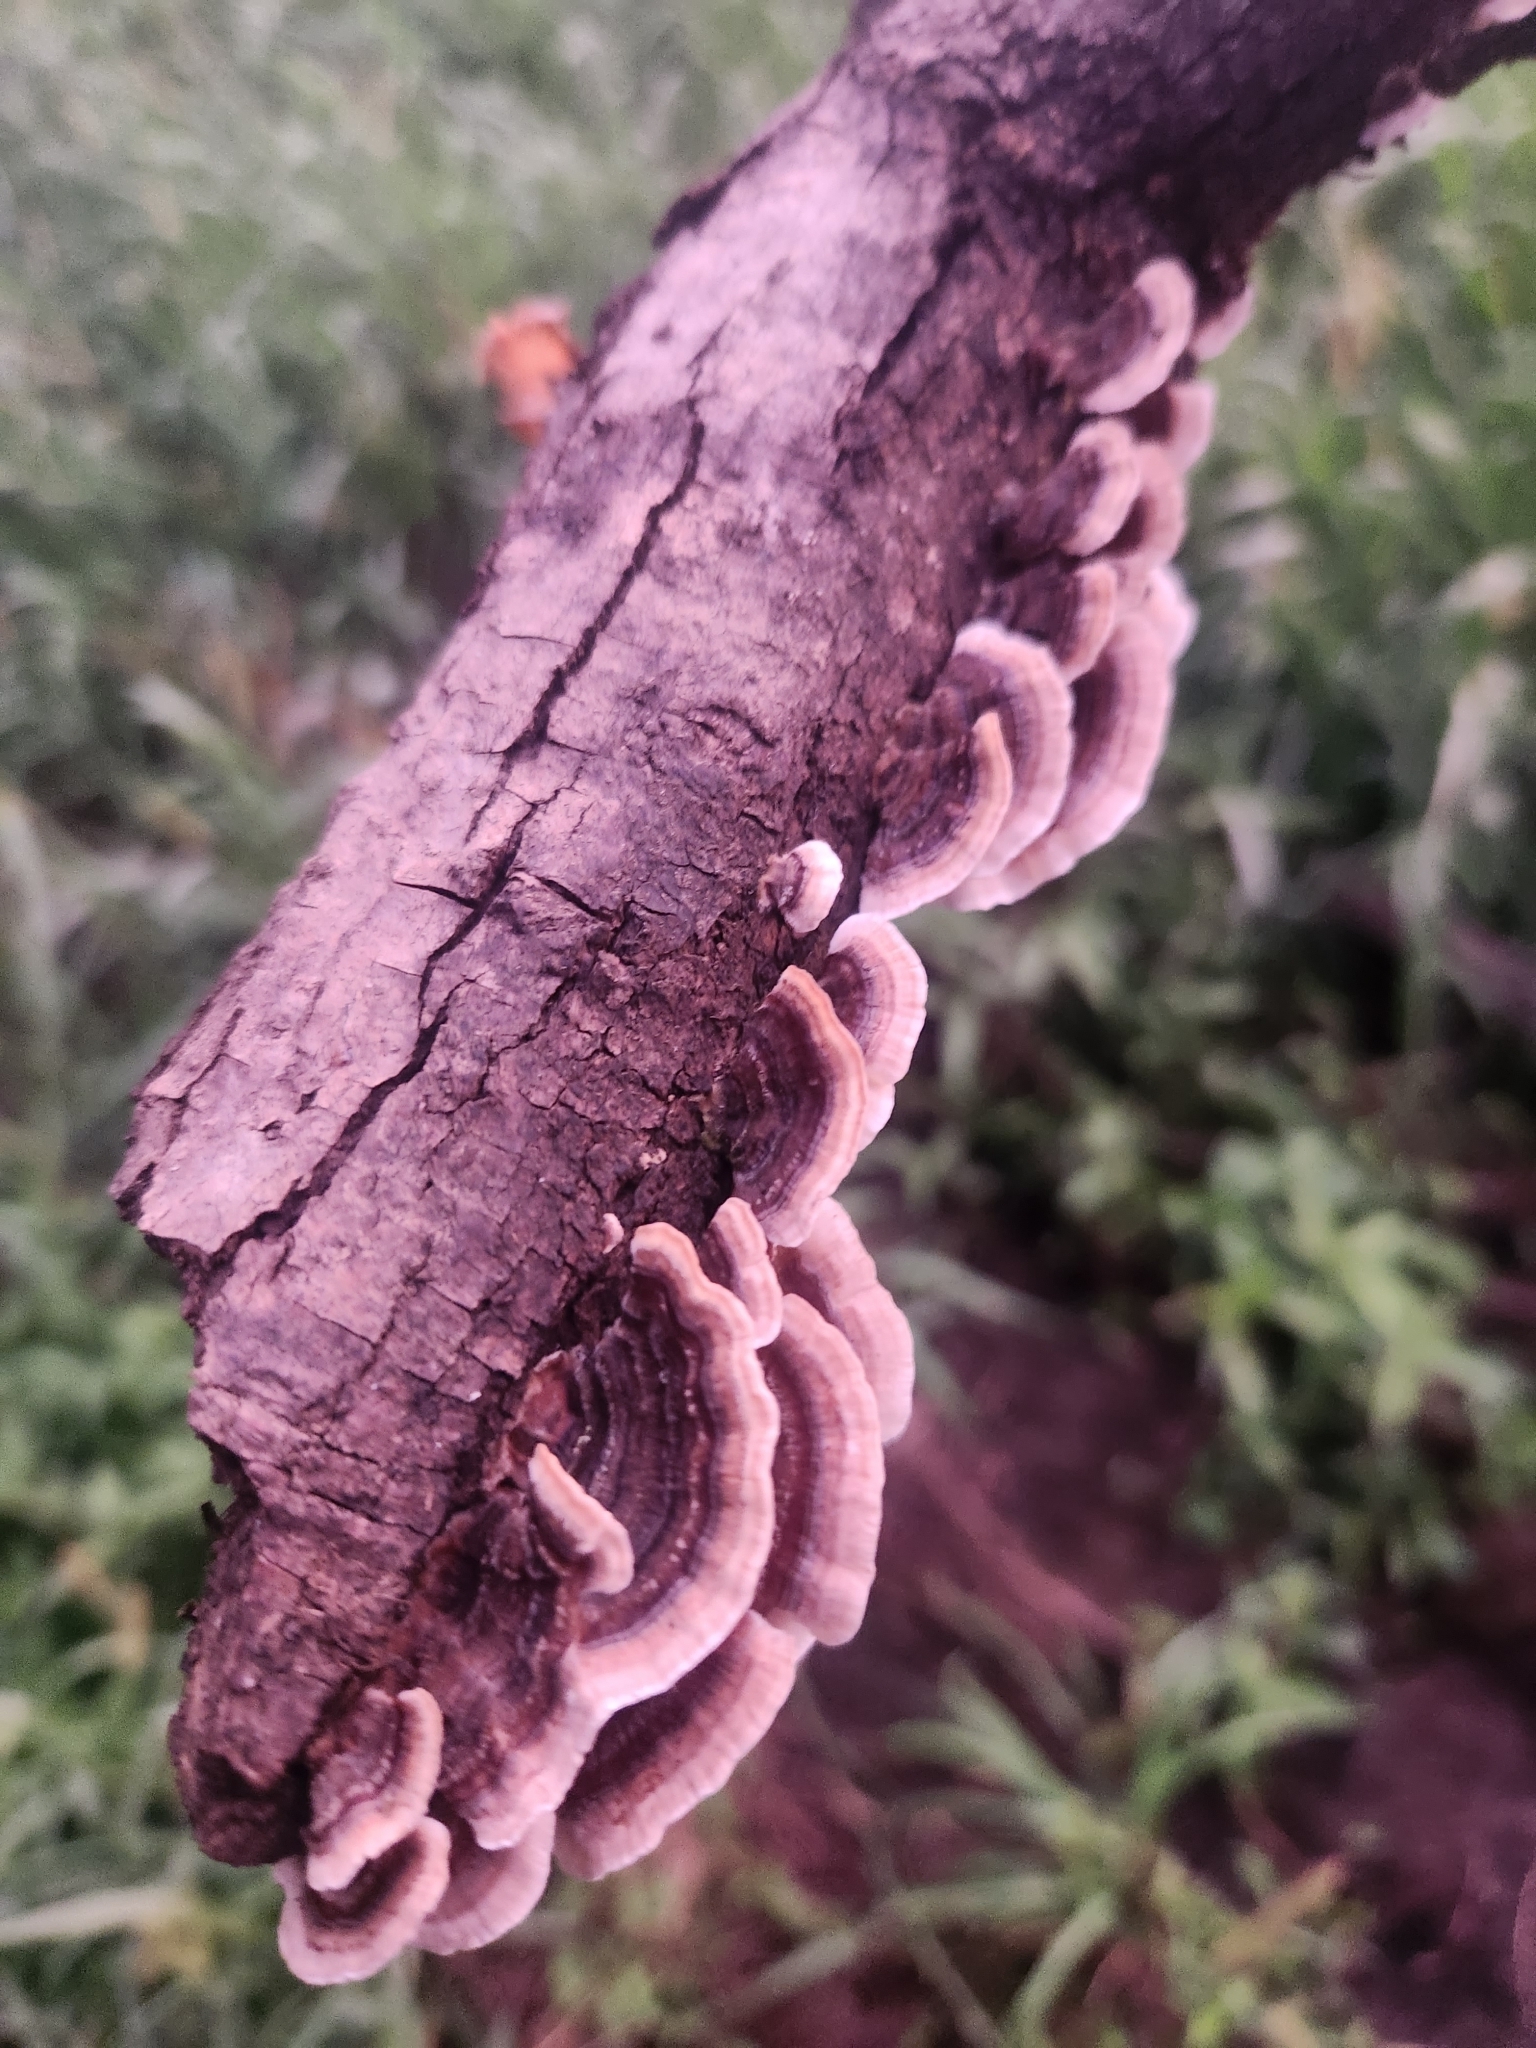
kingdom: Fungi
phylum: Basidiomycota
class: Agaricomycetes
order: Polyporales
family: Polyporaceae
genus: Trametes
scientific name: Trametes versicolor
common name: Turkeytail
